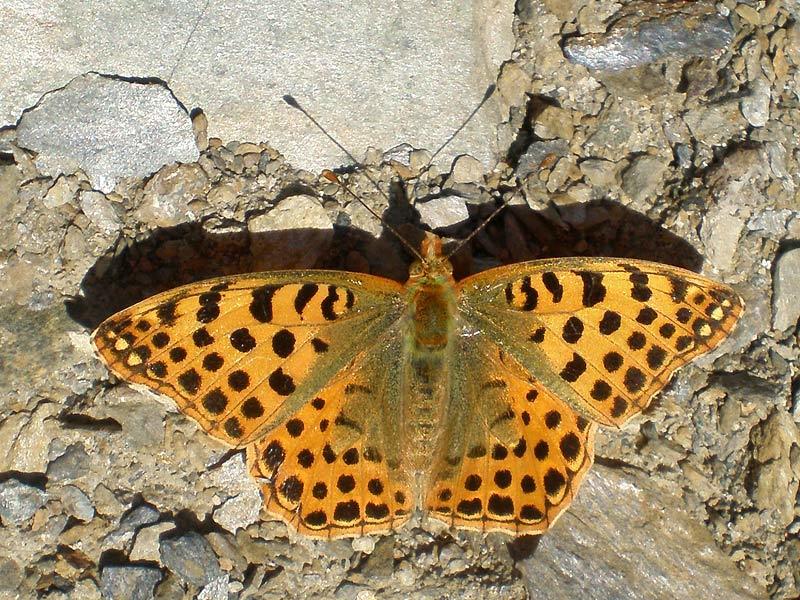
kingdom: Animalia
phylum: Arthropoda
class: Insecta
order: Lepidoptera
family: Nymphalidae
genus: Issoria
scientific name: Issoria lathonia
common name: Queen of spain fritillary
